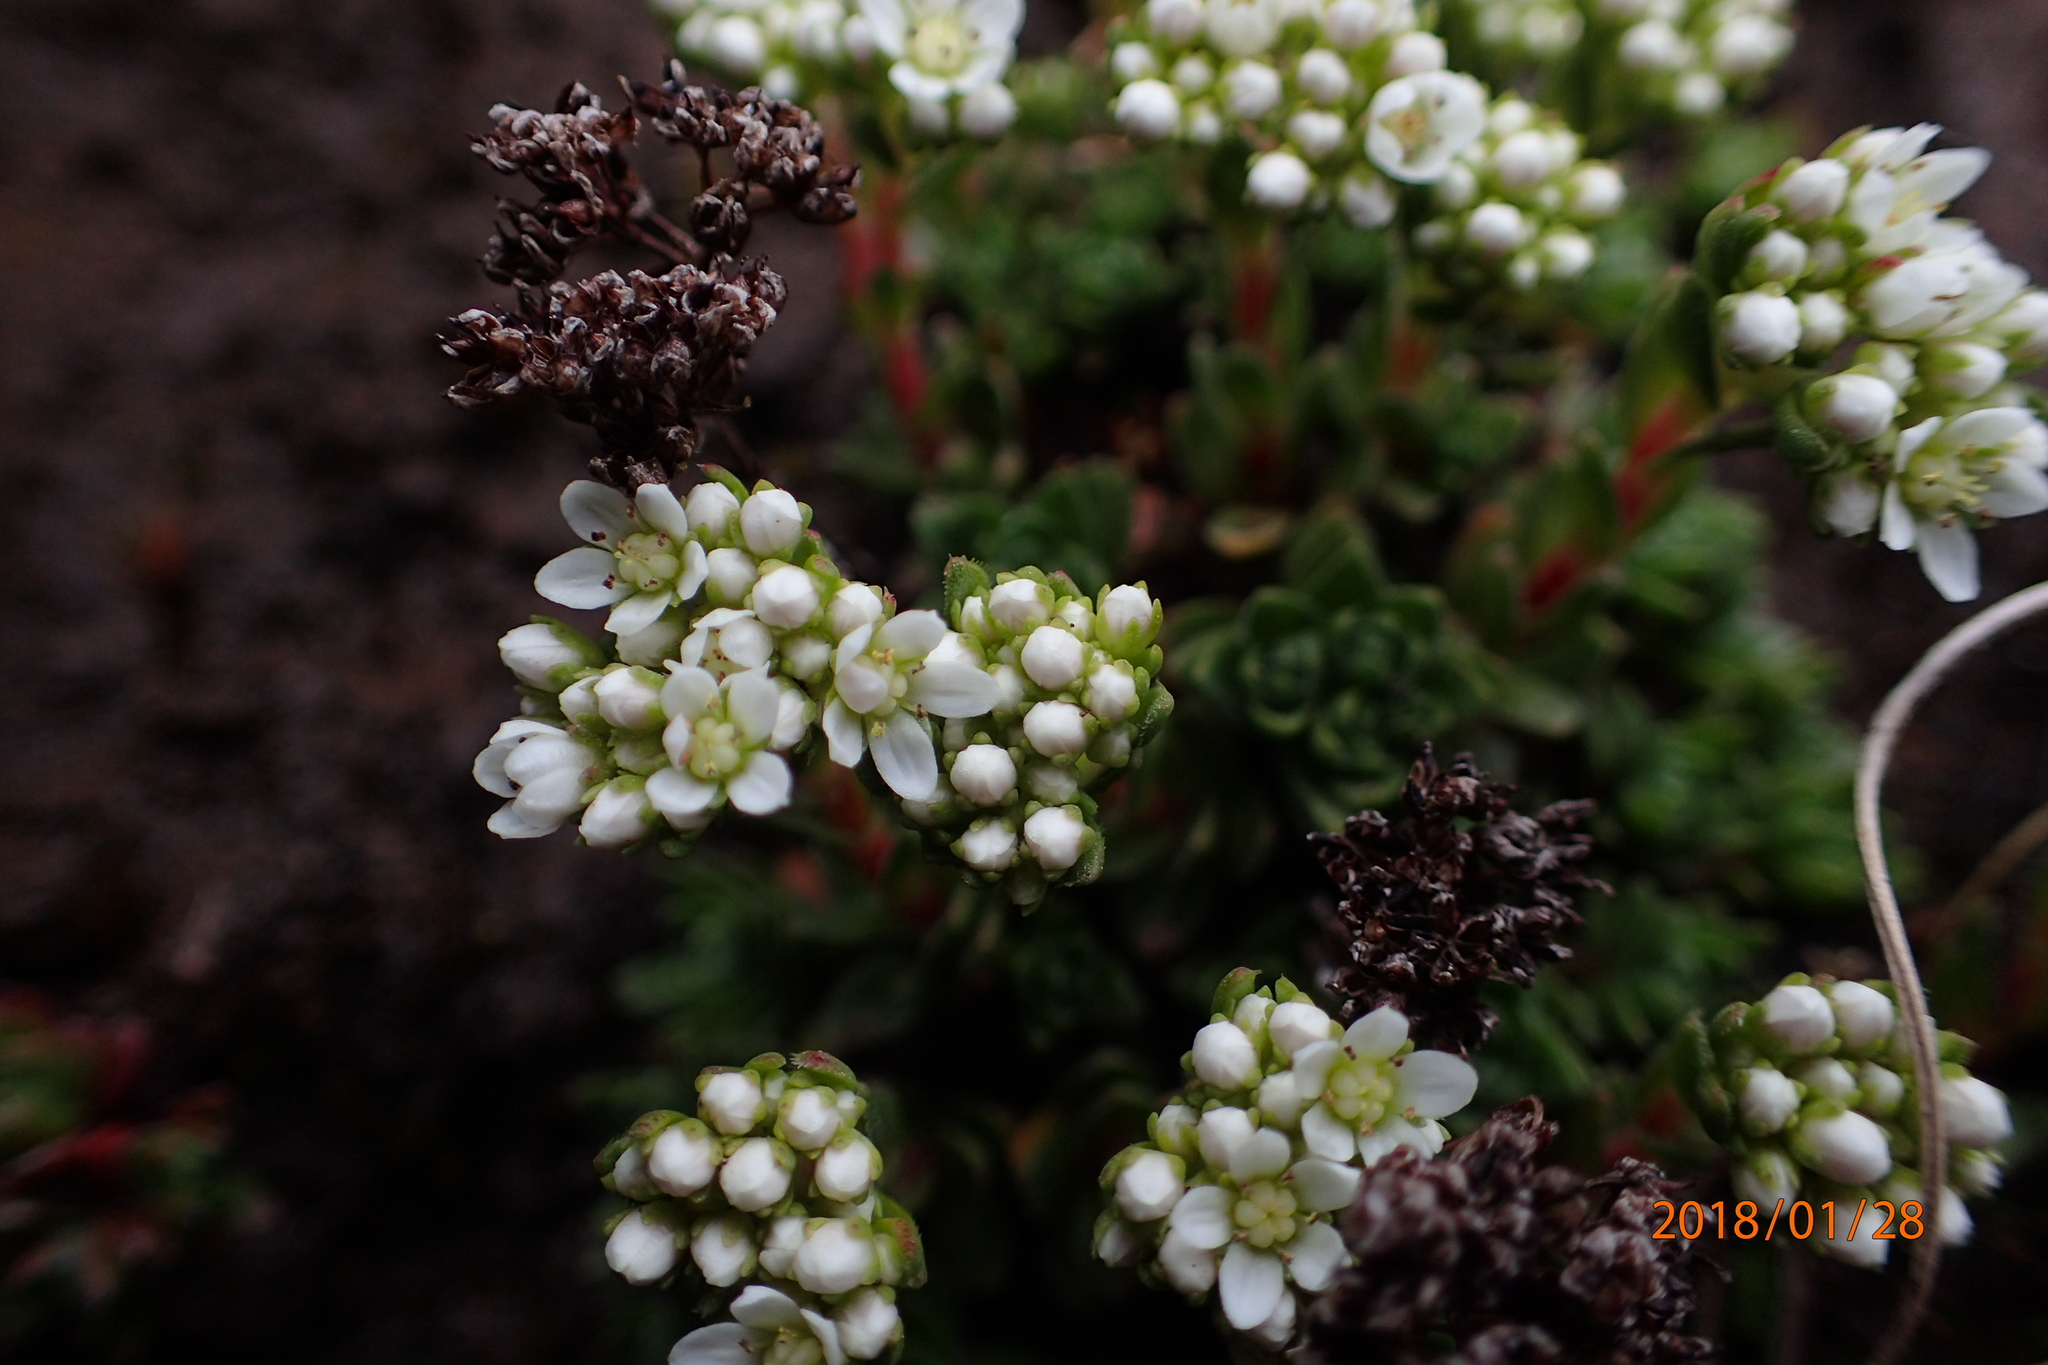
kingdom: Plantae
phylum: Tracheophyta
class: Magnoliopsida
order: Saxifragales
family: Crassulaceae
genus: Crassula
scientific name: Crassula setulosa
